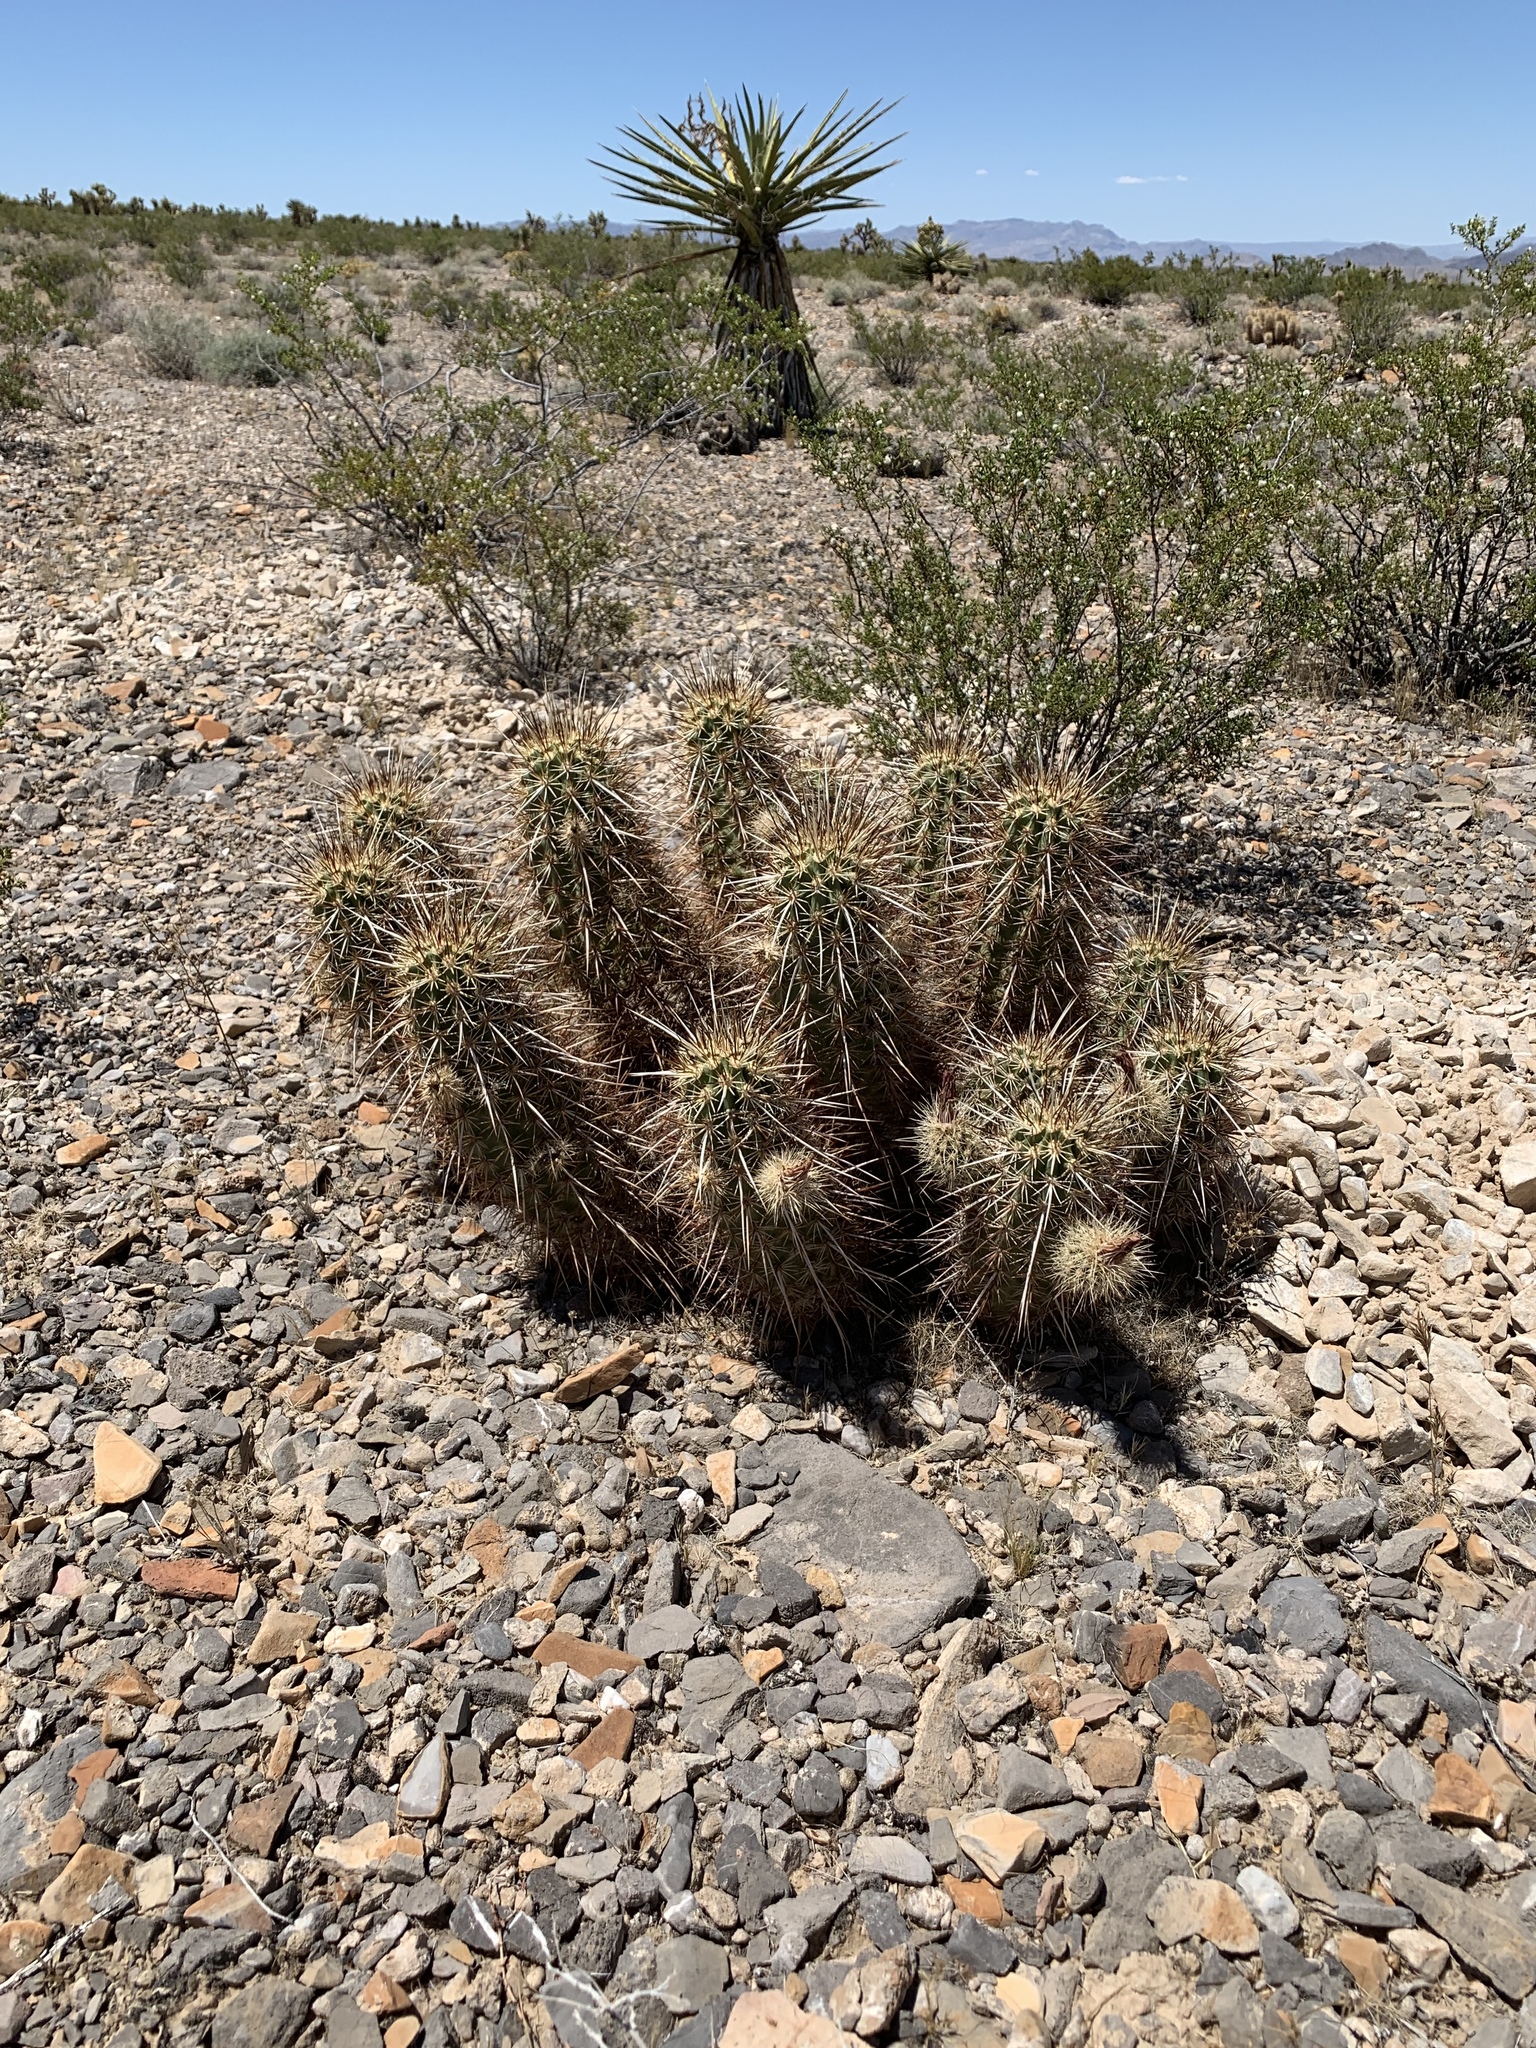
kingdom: Plantae
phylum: Tracheophyta
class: Magnoliopsida
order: Caryophyllales
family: Cactaceae
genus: Echinocereus
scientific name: Echinocereus engelmannii
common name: Engelmann's hedgehog cactus
